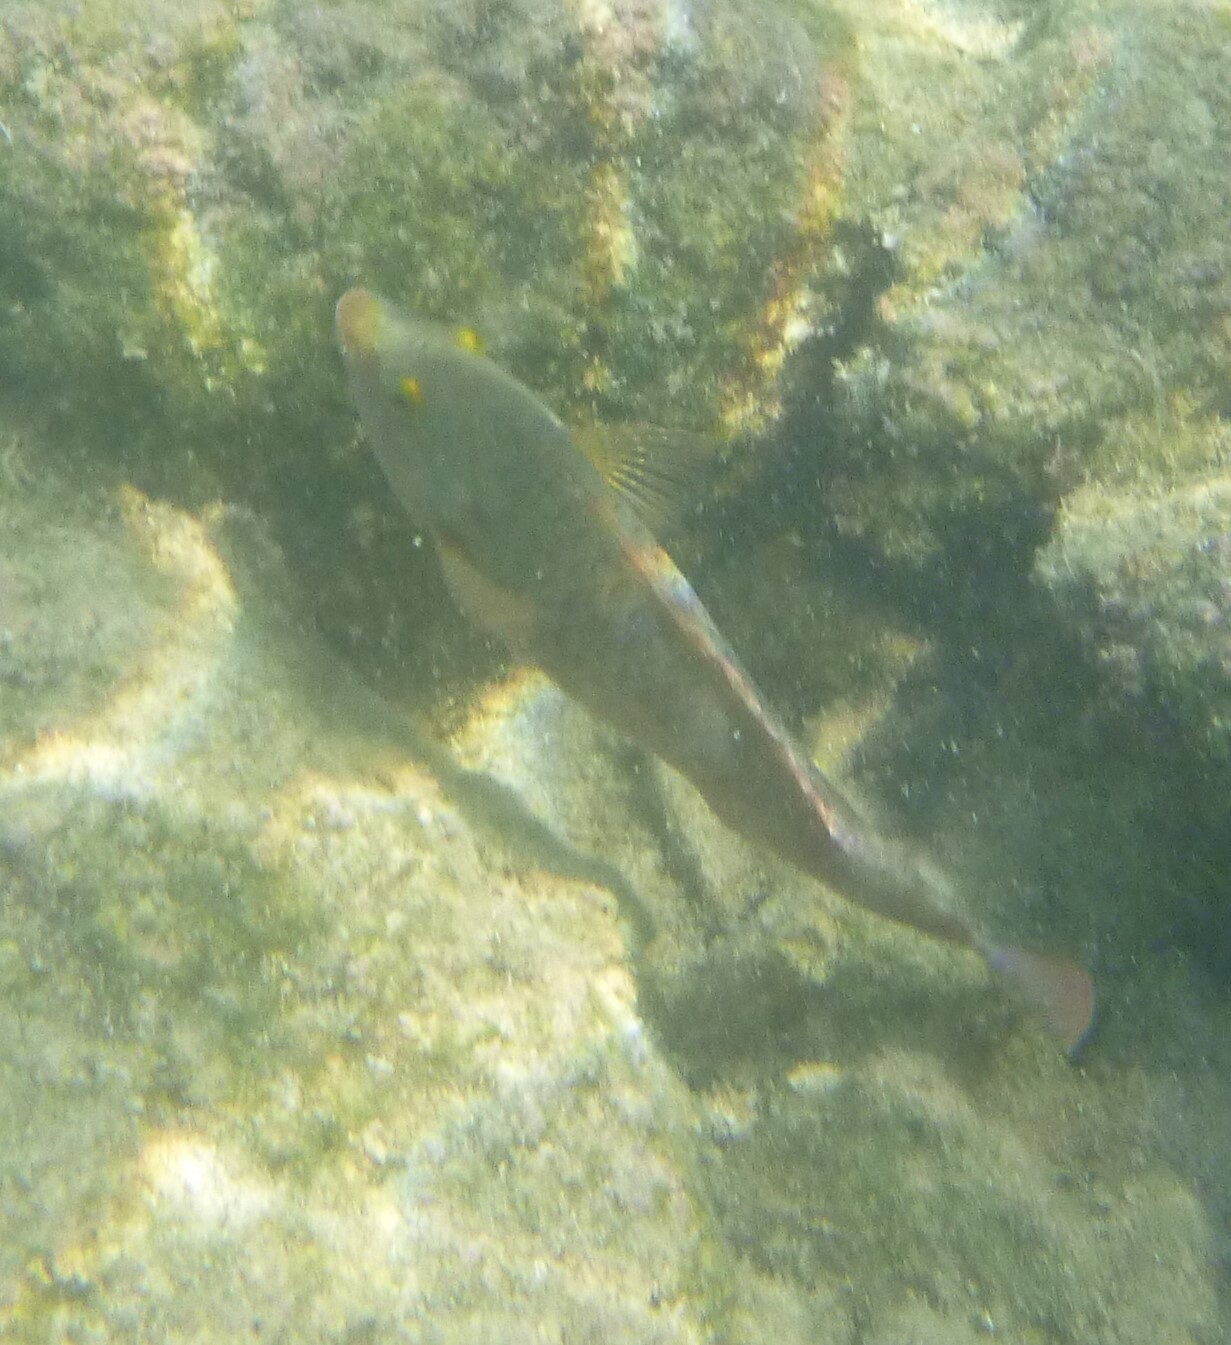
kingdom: Animalia
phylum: Chordata
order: Perciformes
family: Scaridae
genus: Sparisoma
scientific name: Sparisoma cretense
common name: Parrotfish
